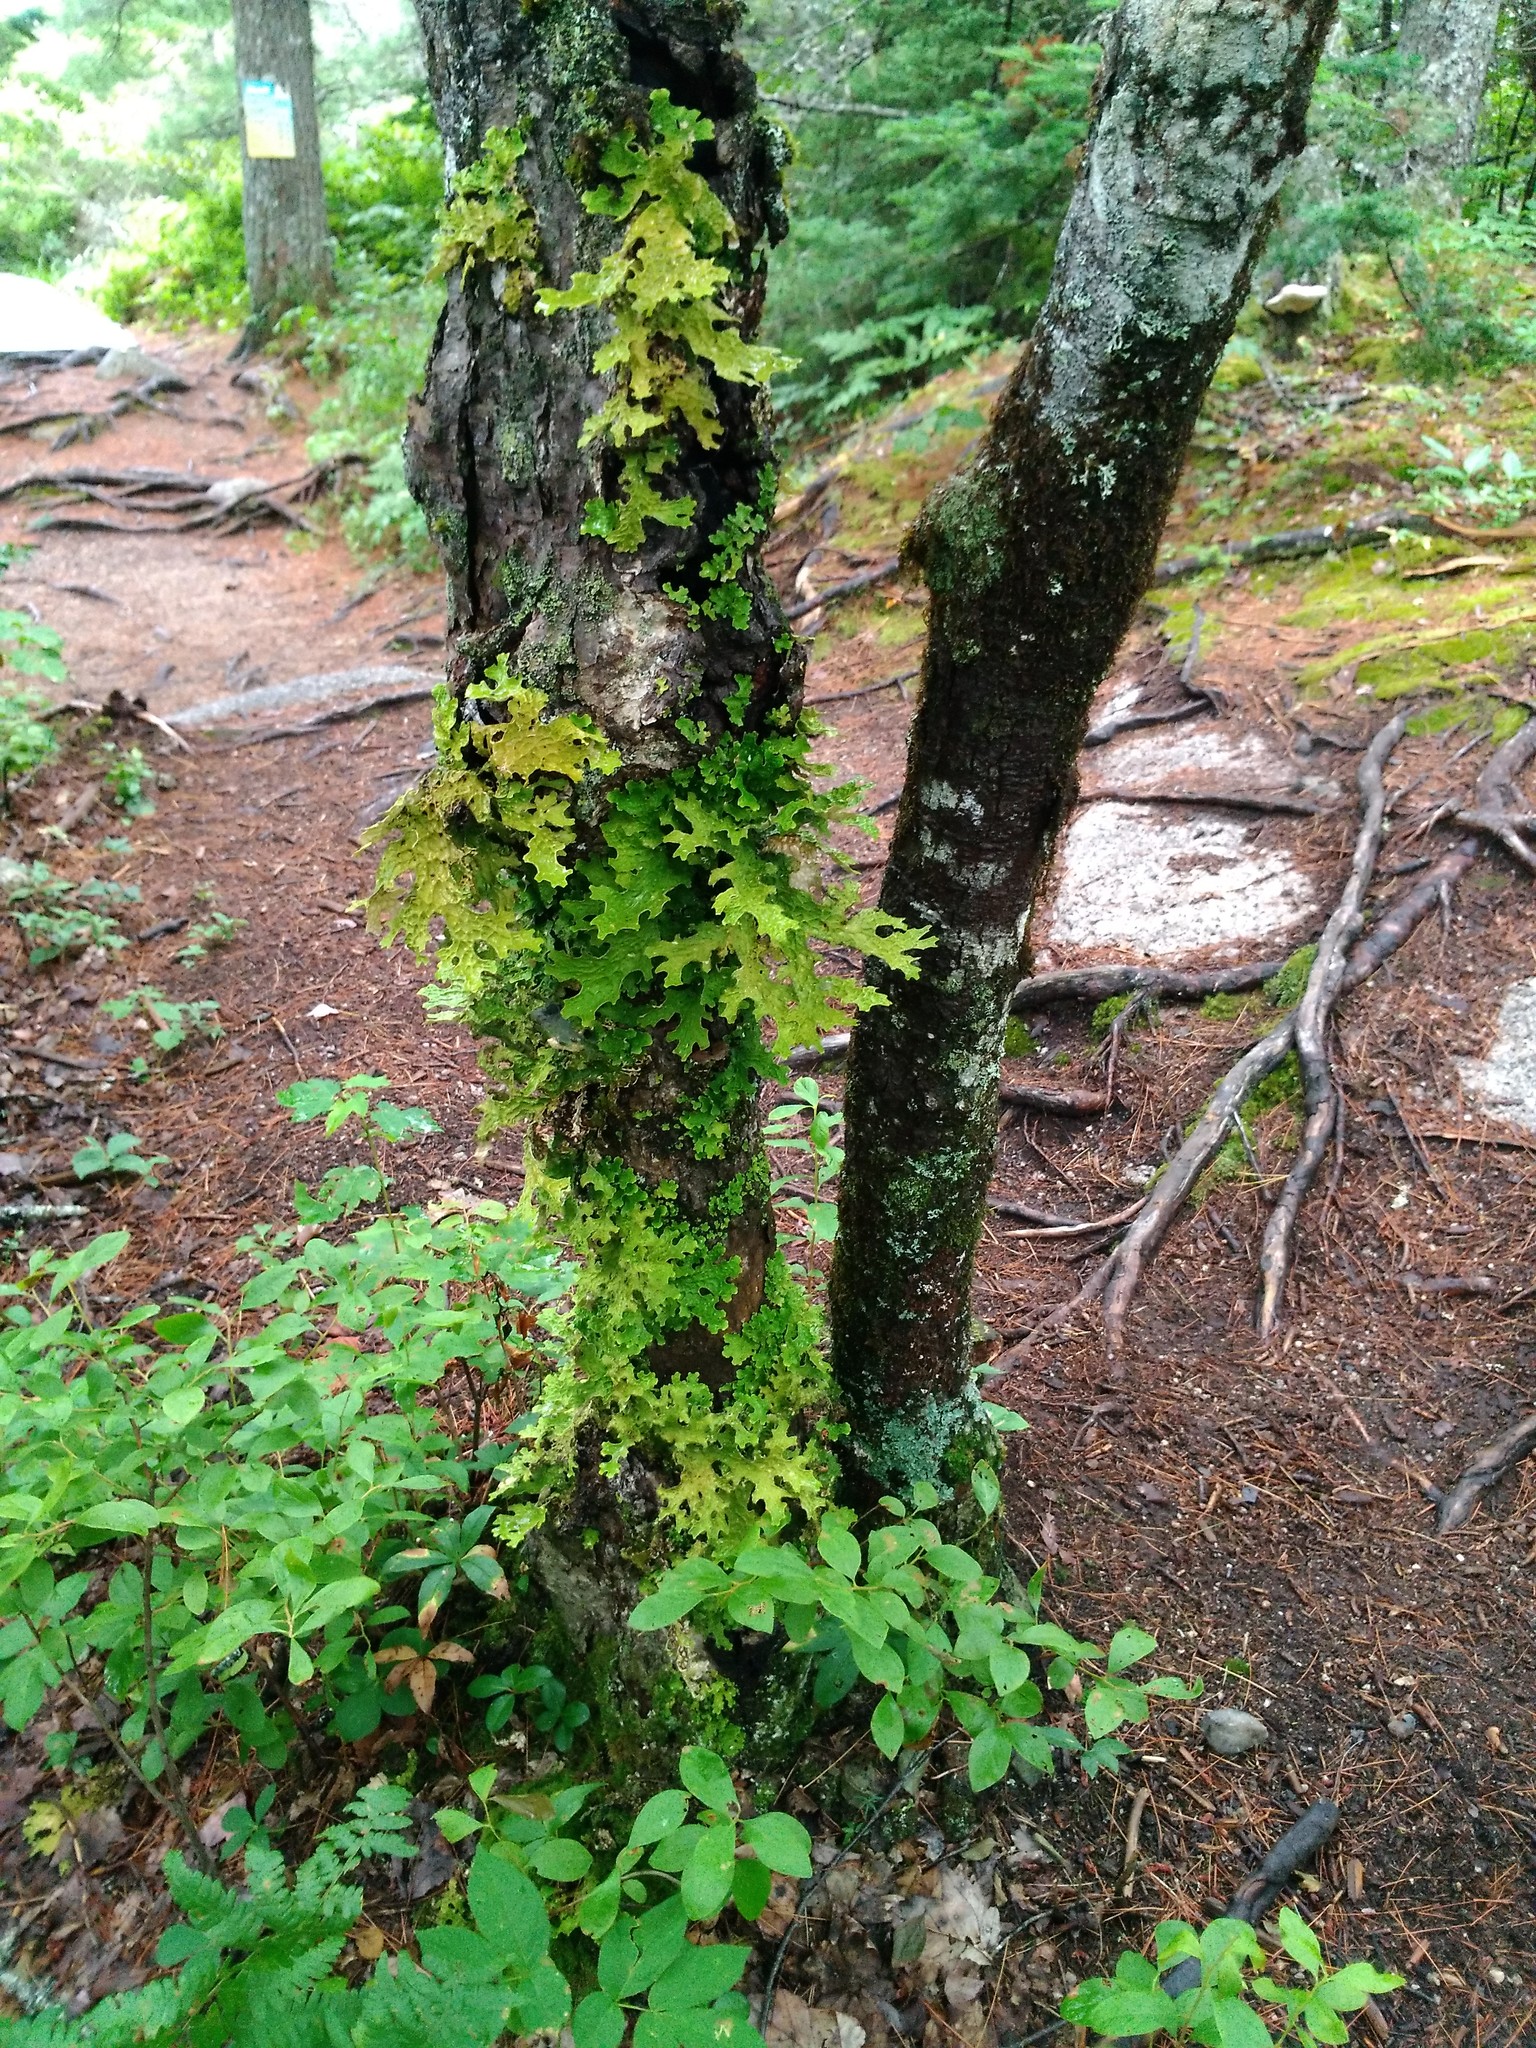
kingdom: Fungi
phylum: Ascomycota
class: Lecanoromycetes
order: Peltigerales
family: Lobariaceae
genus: Lobaria
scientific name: Lobaria pulmonaria
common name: Lungwort
